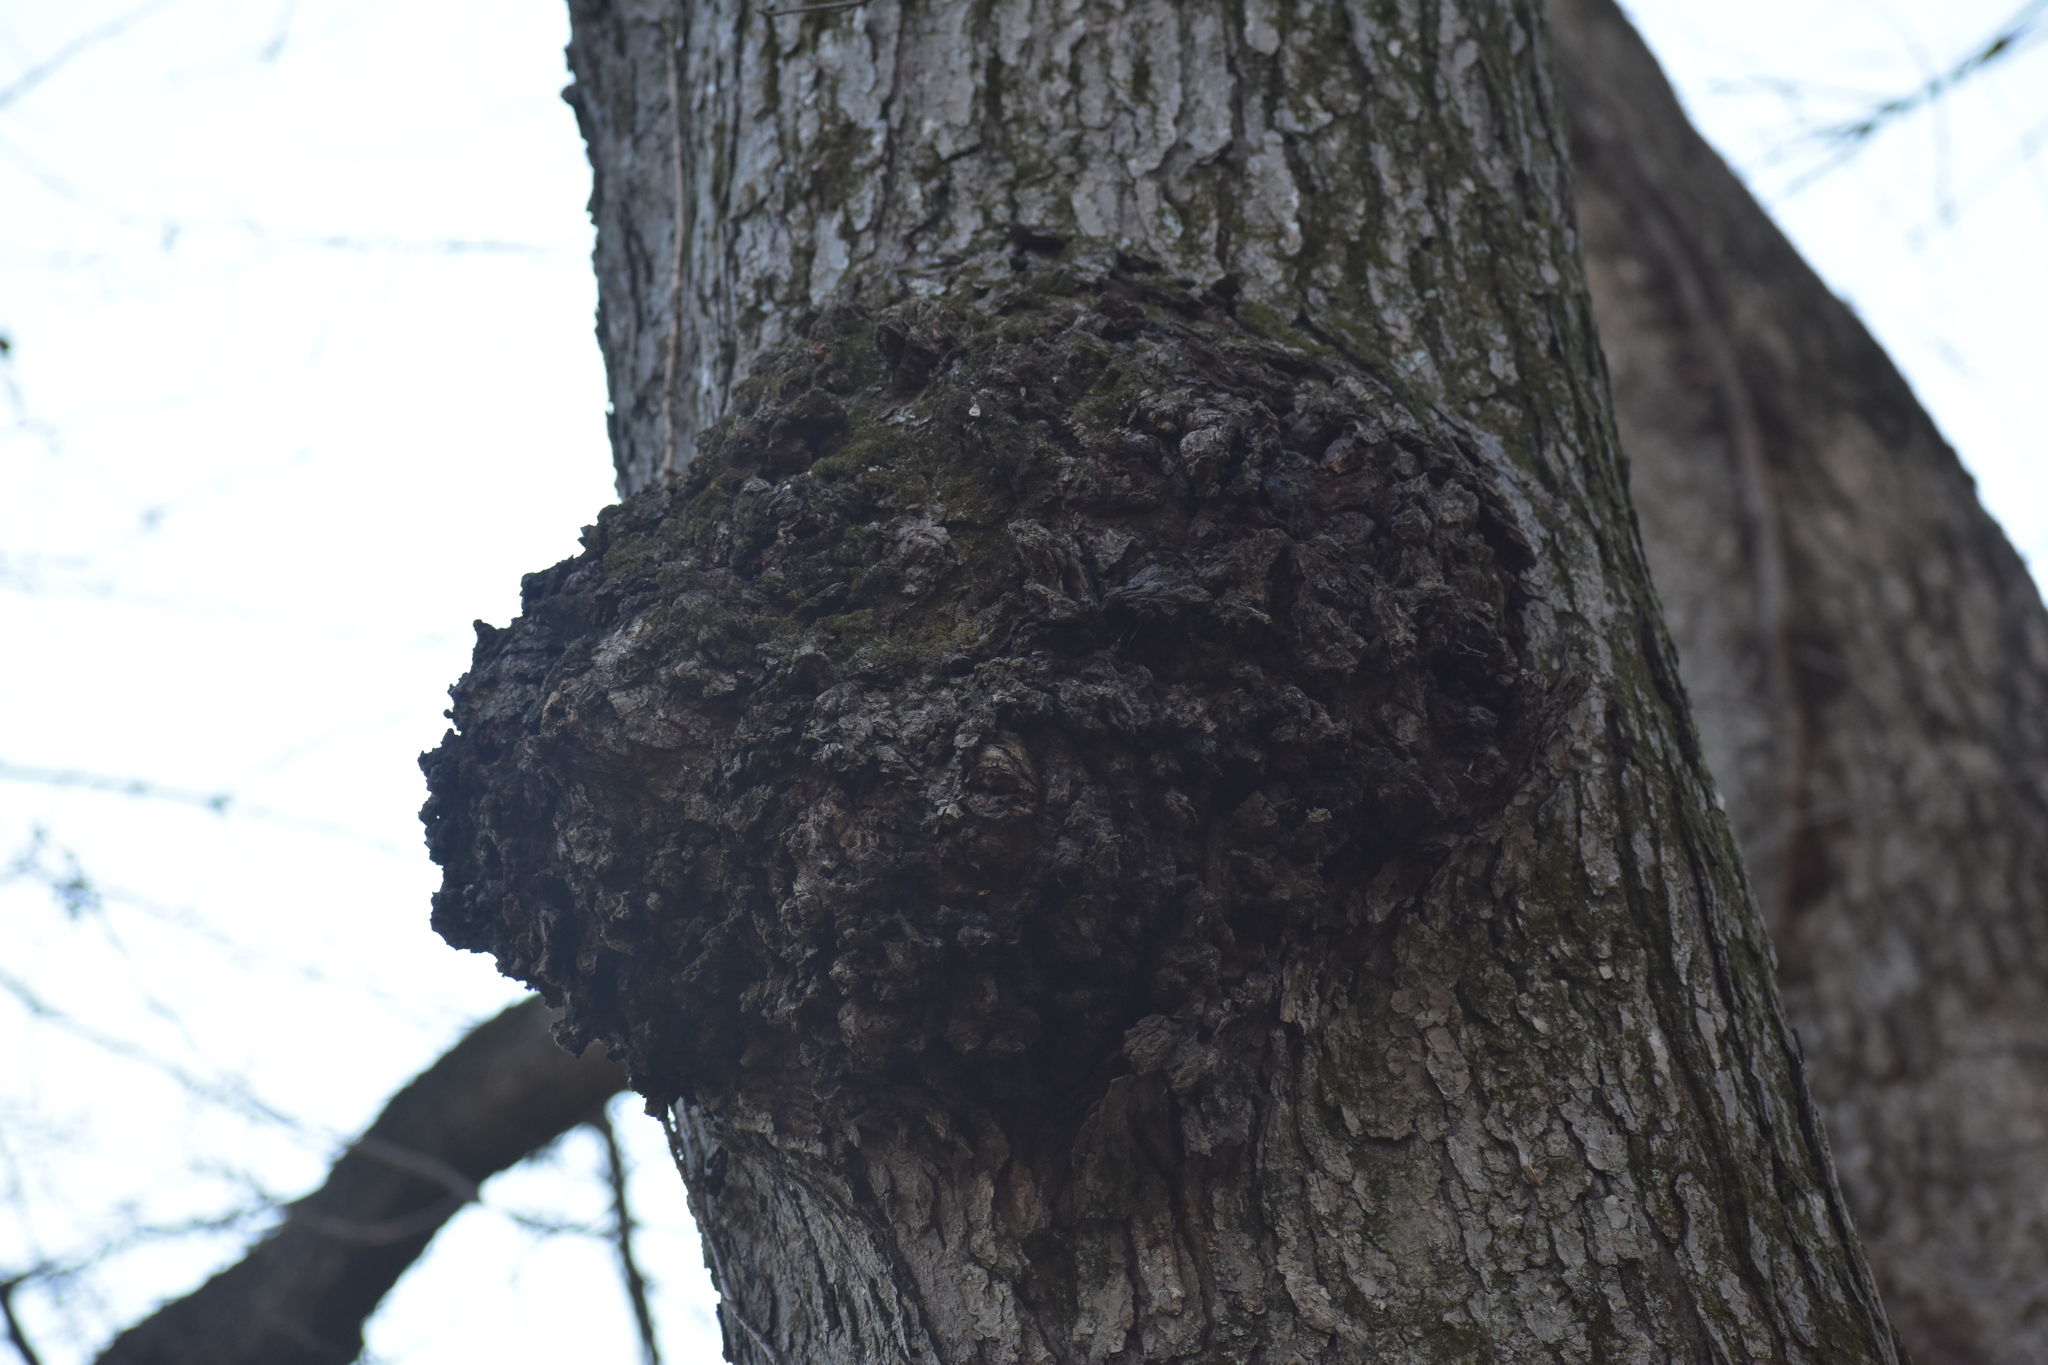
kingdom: Bacteria
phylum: Proteobacteria
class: Alphaproteobacteria
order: Rhizobiales
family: Rhizobiaceae
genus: Rhizobium
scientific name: Rhizobium Agrobacterium radiobacter
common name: Bacterial crown gall
